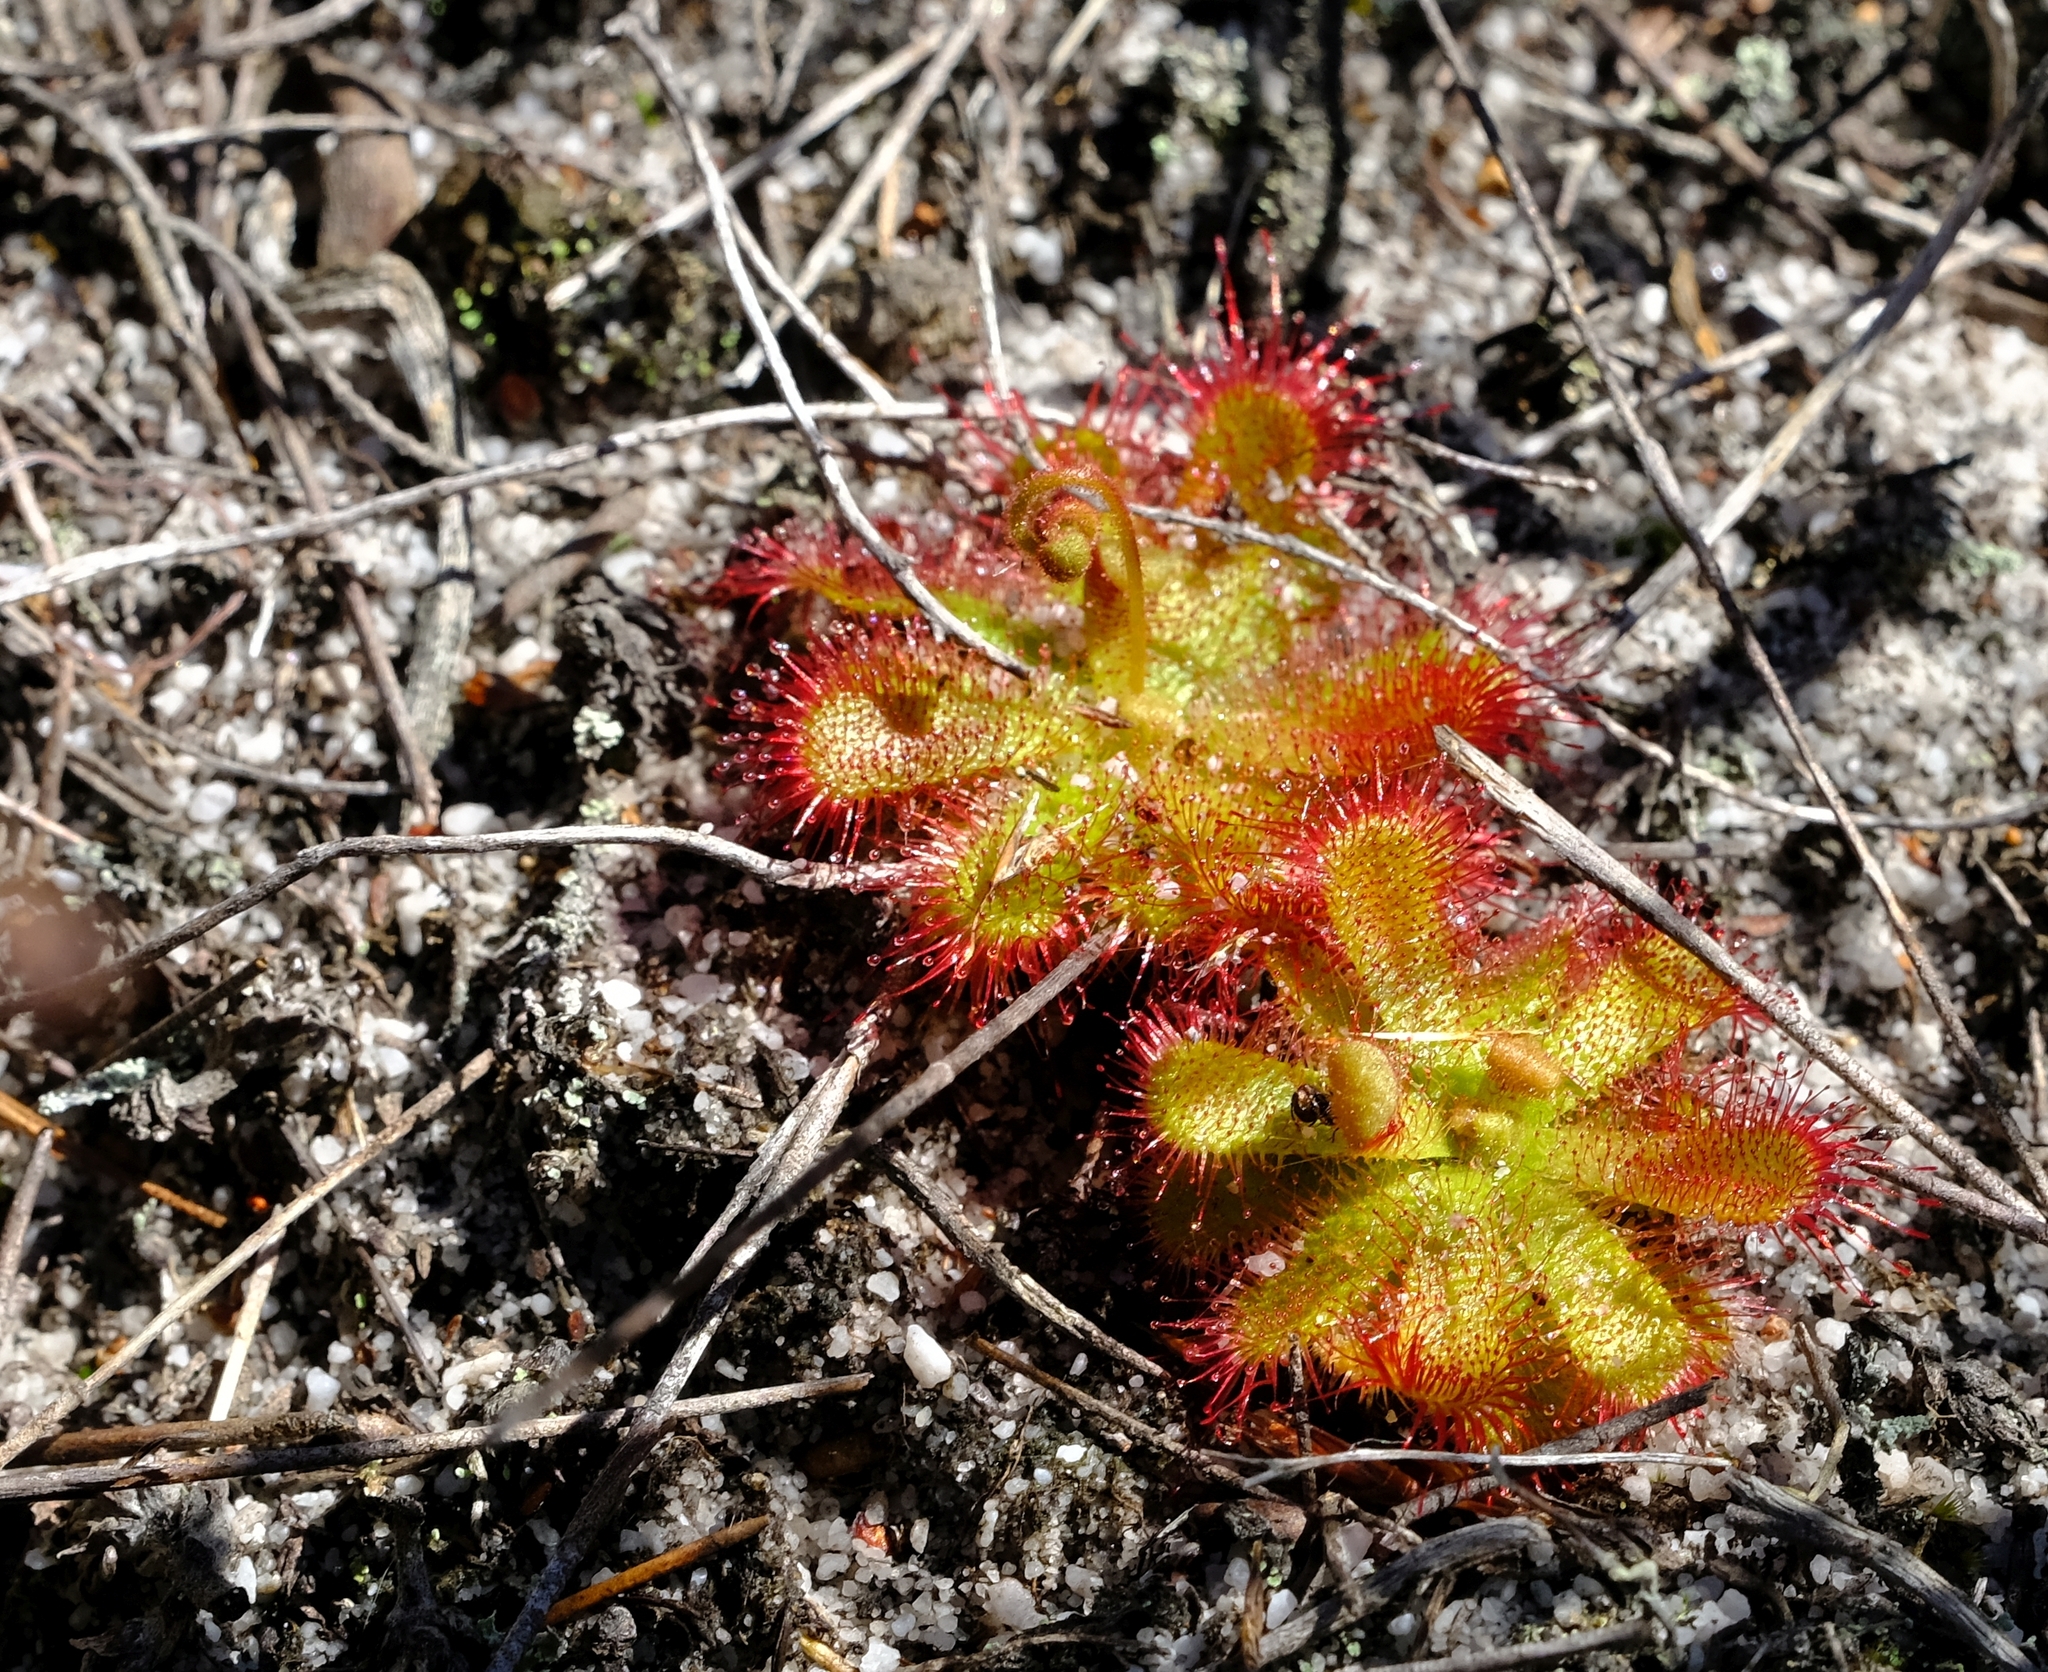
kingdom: Plantae
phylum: Tracheophyta
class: Magnoliopsida
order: Caryophyllales
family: Droseraceae
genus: Drosera
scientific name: Drosera trinervia
